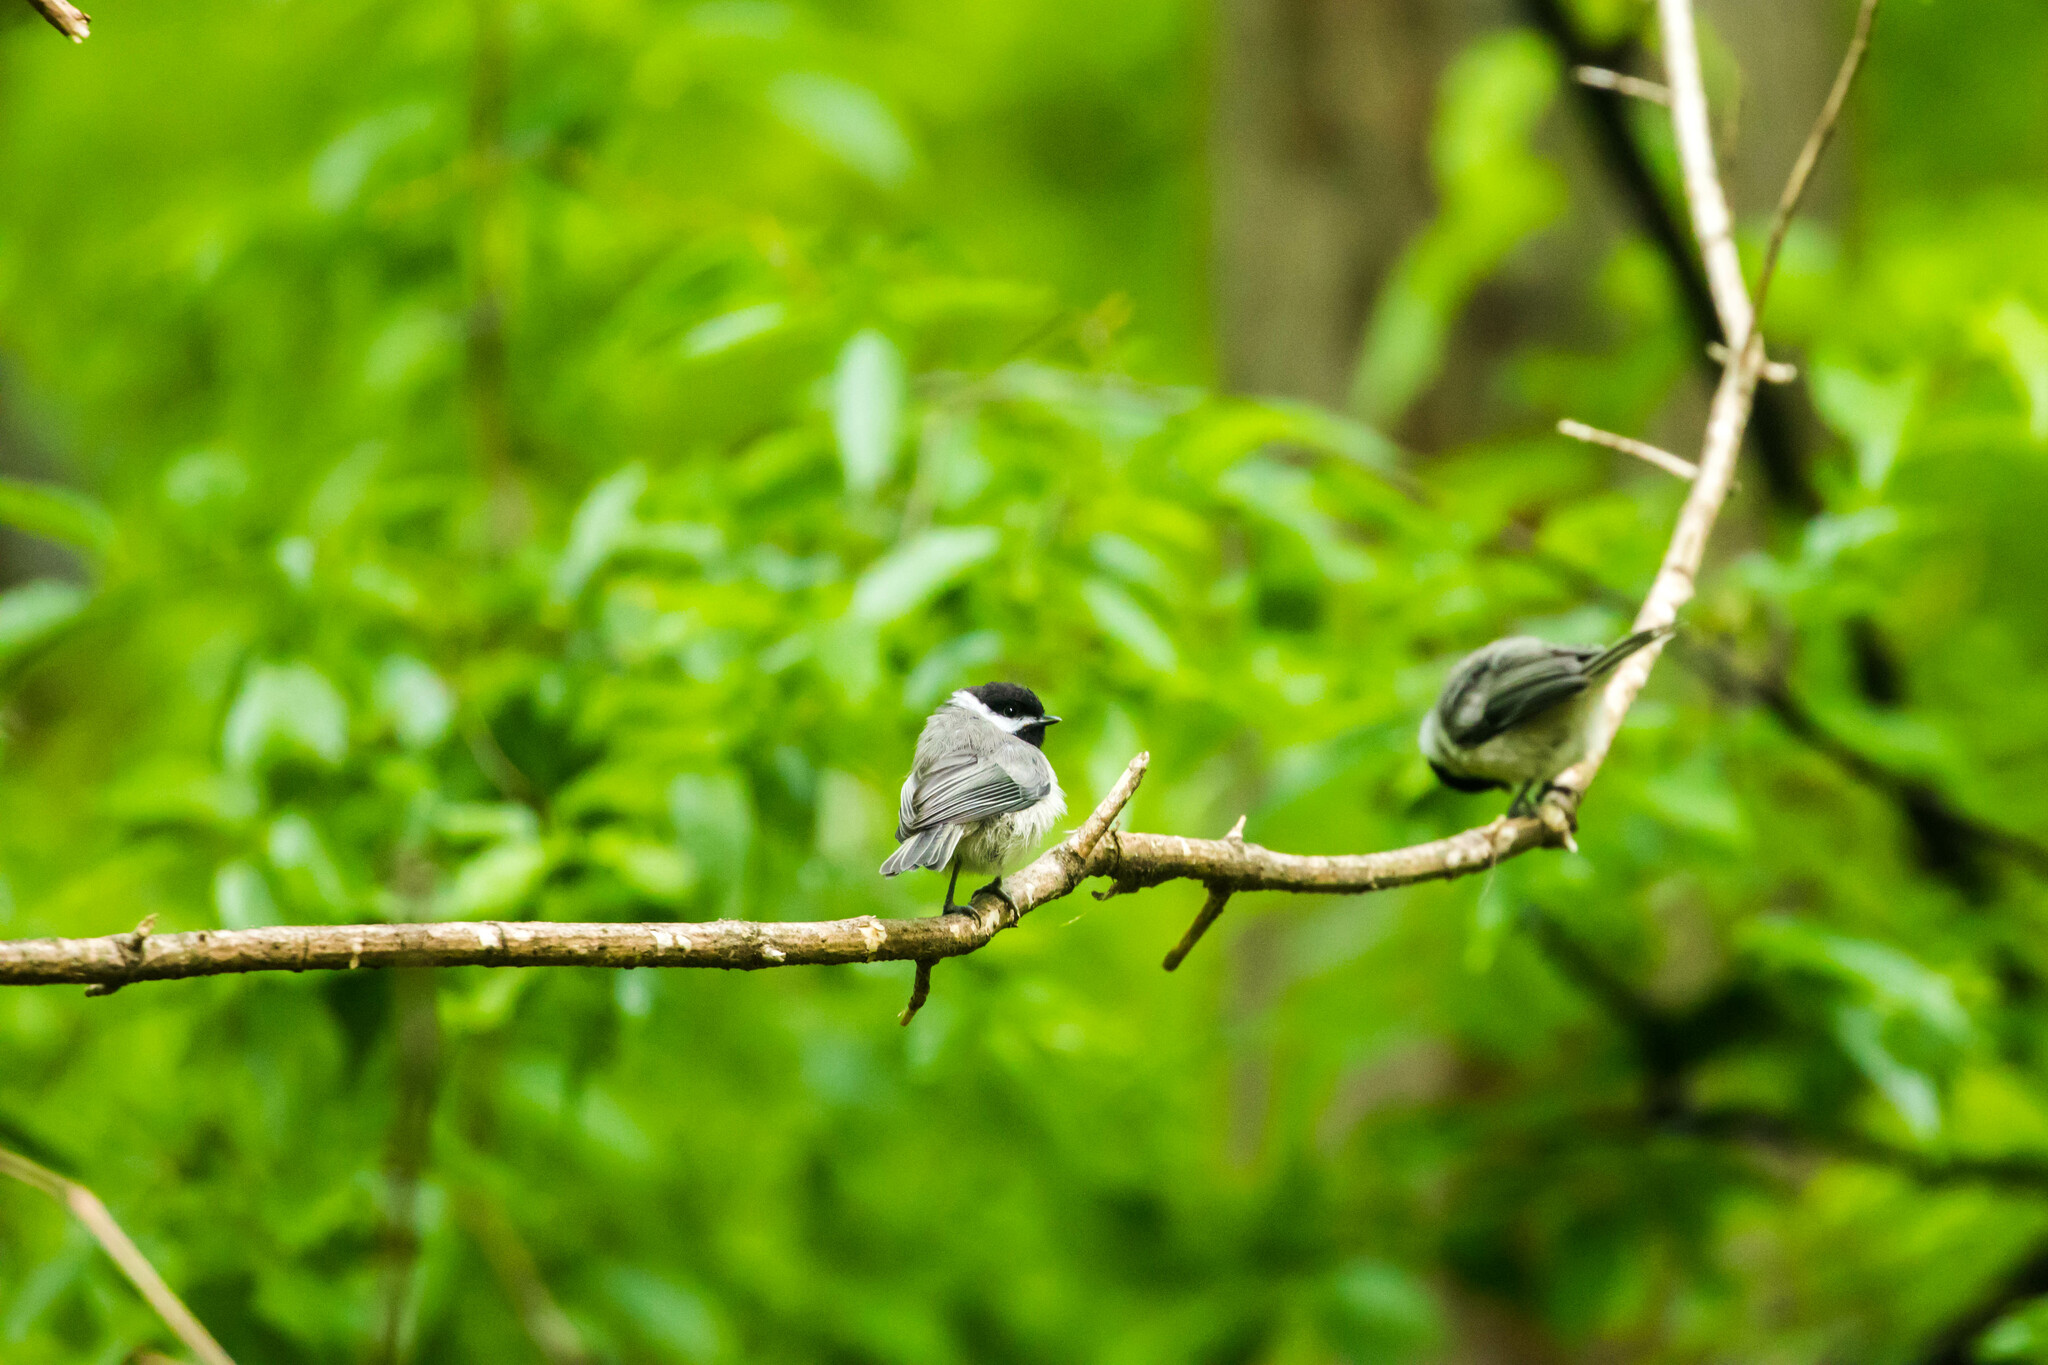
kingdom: Animalia
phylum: Chordata
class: Aves
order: Passeriformes
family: Paridae
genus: Poecile
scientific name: Poecile carolinensis
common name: Carolina chickadee
